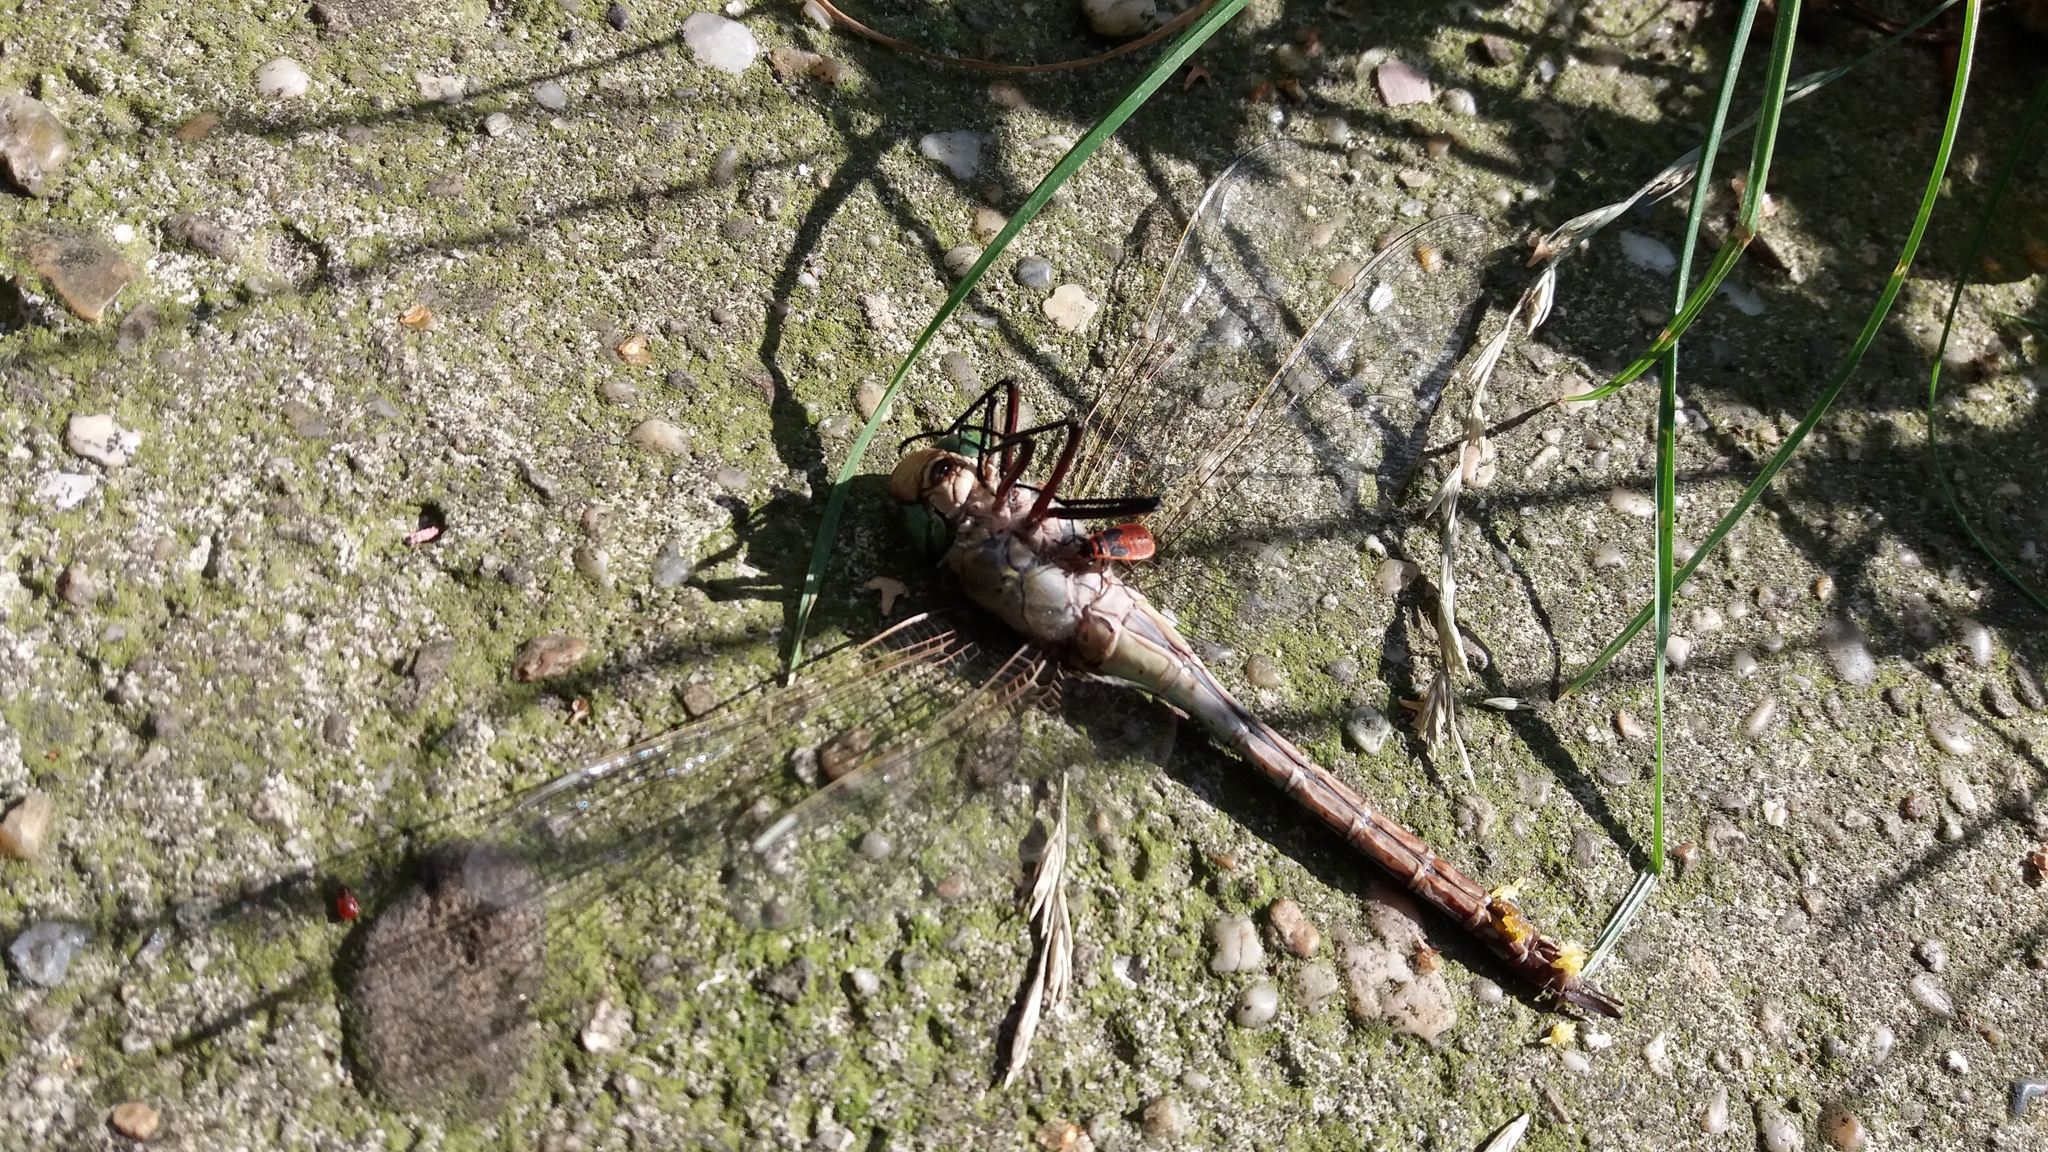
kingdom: Animalia
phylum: Arthropoda
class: Insecta
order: Odonata
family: Aeshnidae
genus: Anax
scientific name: Anax parthenope
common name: Lesser emperor
